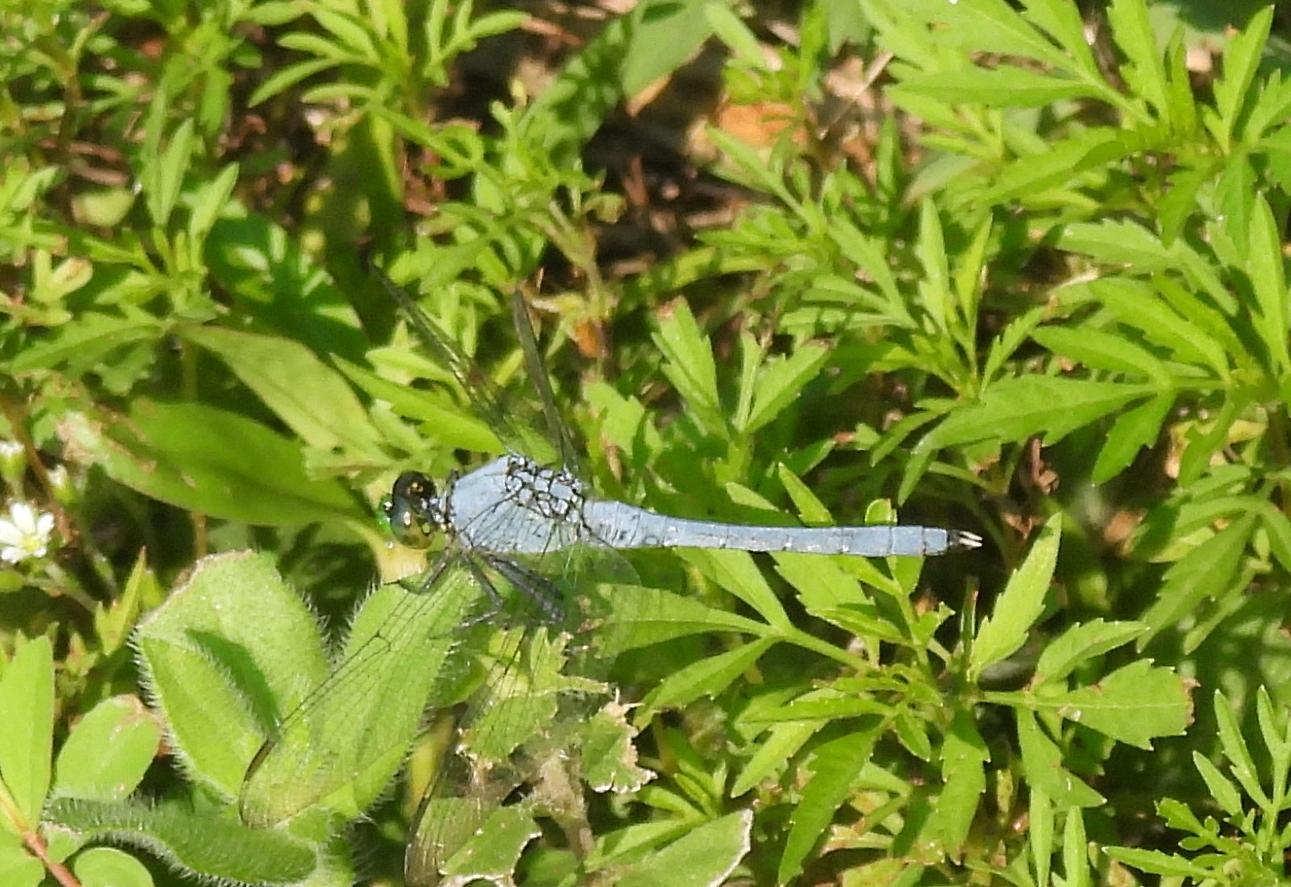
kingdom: Animalia
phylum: Arthropoda
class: Insecta
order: Odonata
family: Libellulidae
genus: Erythemis
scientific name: Erythemis simplicicollis
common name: Eastern pondhawk
